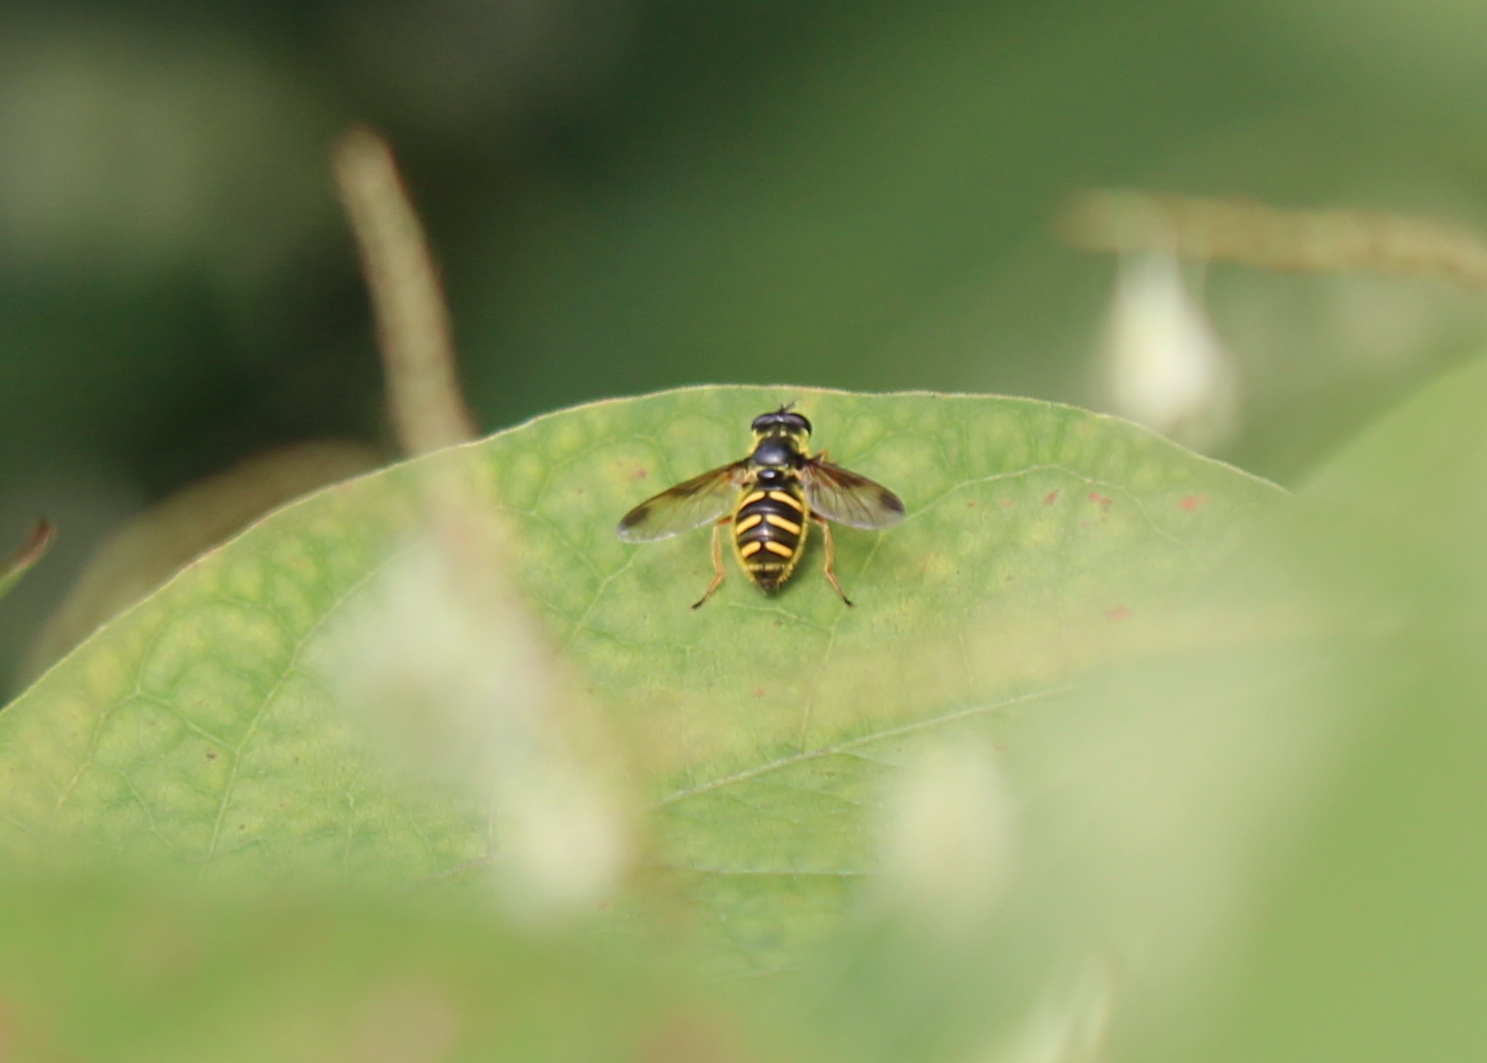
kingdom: Animalia
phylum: Arthropoda
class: Insecta
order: Diptera
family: Syrphidae
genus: Sericomyia
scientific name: Sericomyia chrysotoxoides
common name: Oblique-banded pond fly
